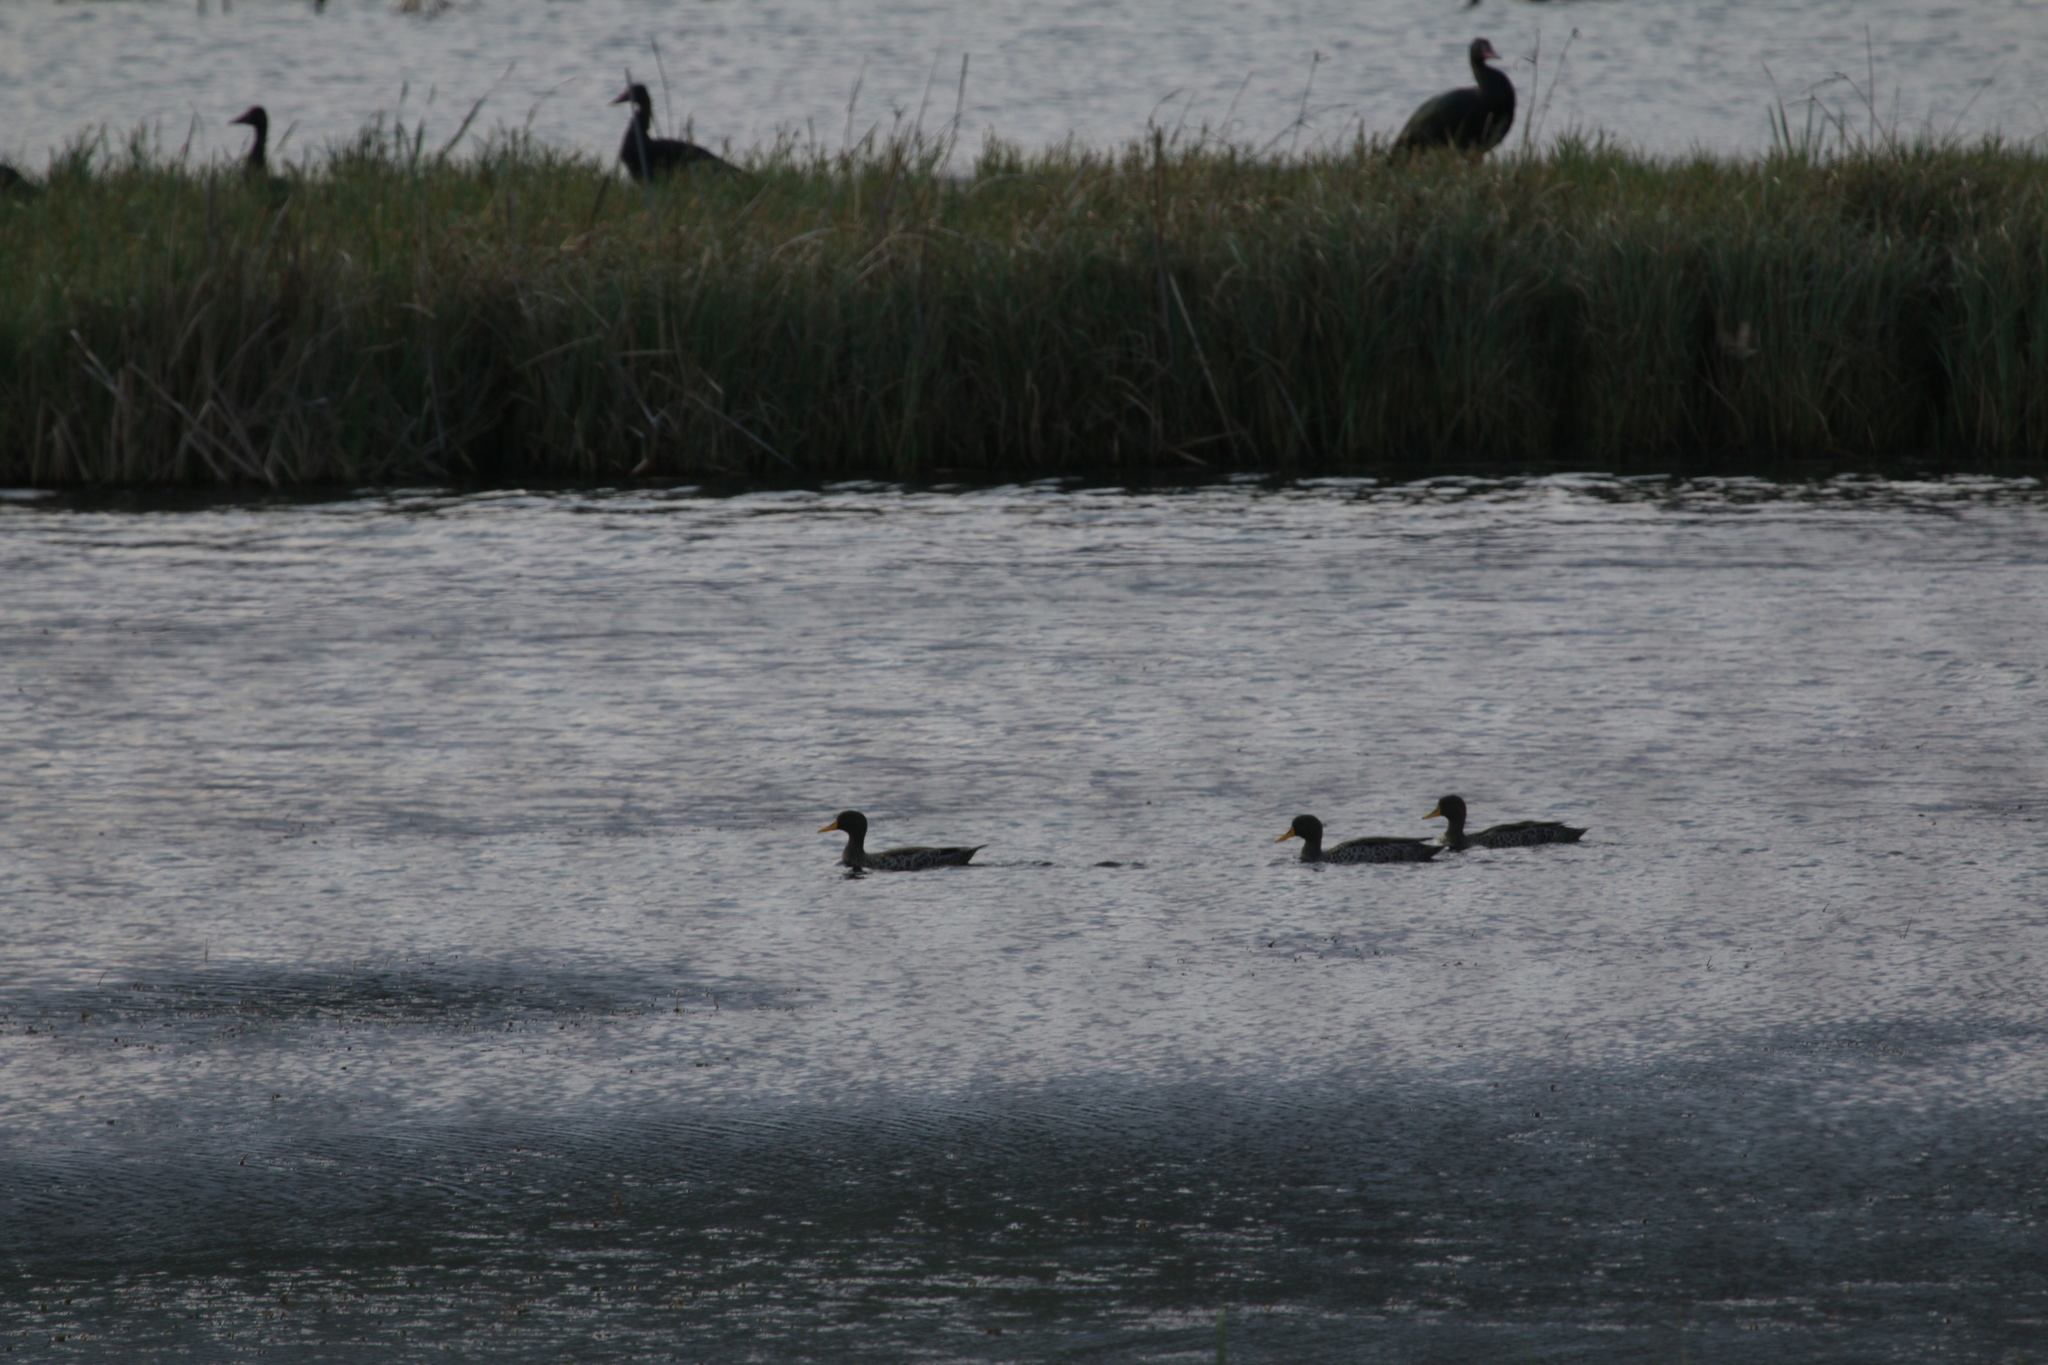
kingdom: Animalia
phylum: Chordata
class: Aves
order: Anseriformes
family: Anatidae
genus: Anas
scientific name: Anas undulata
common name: Yellow-billed duck
